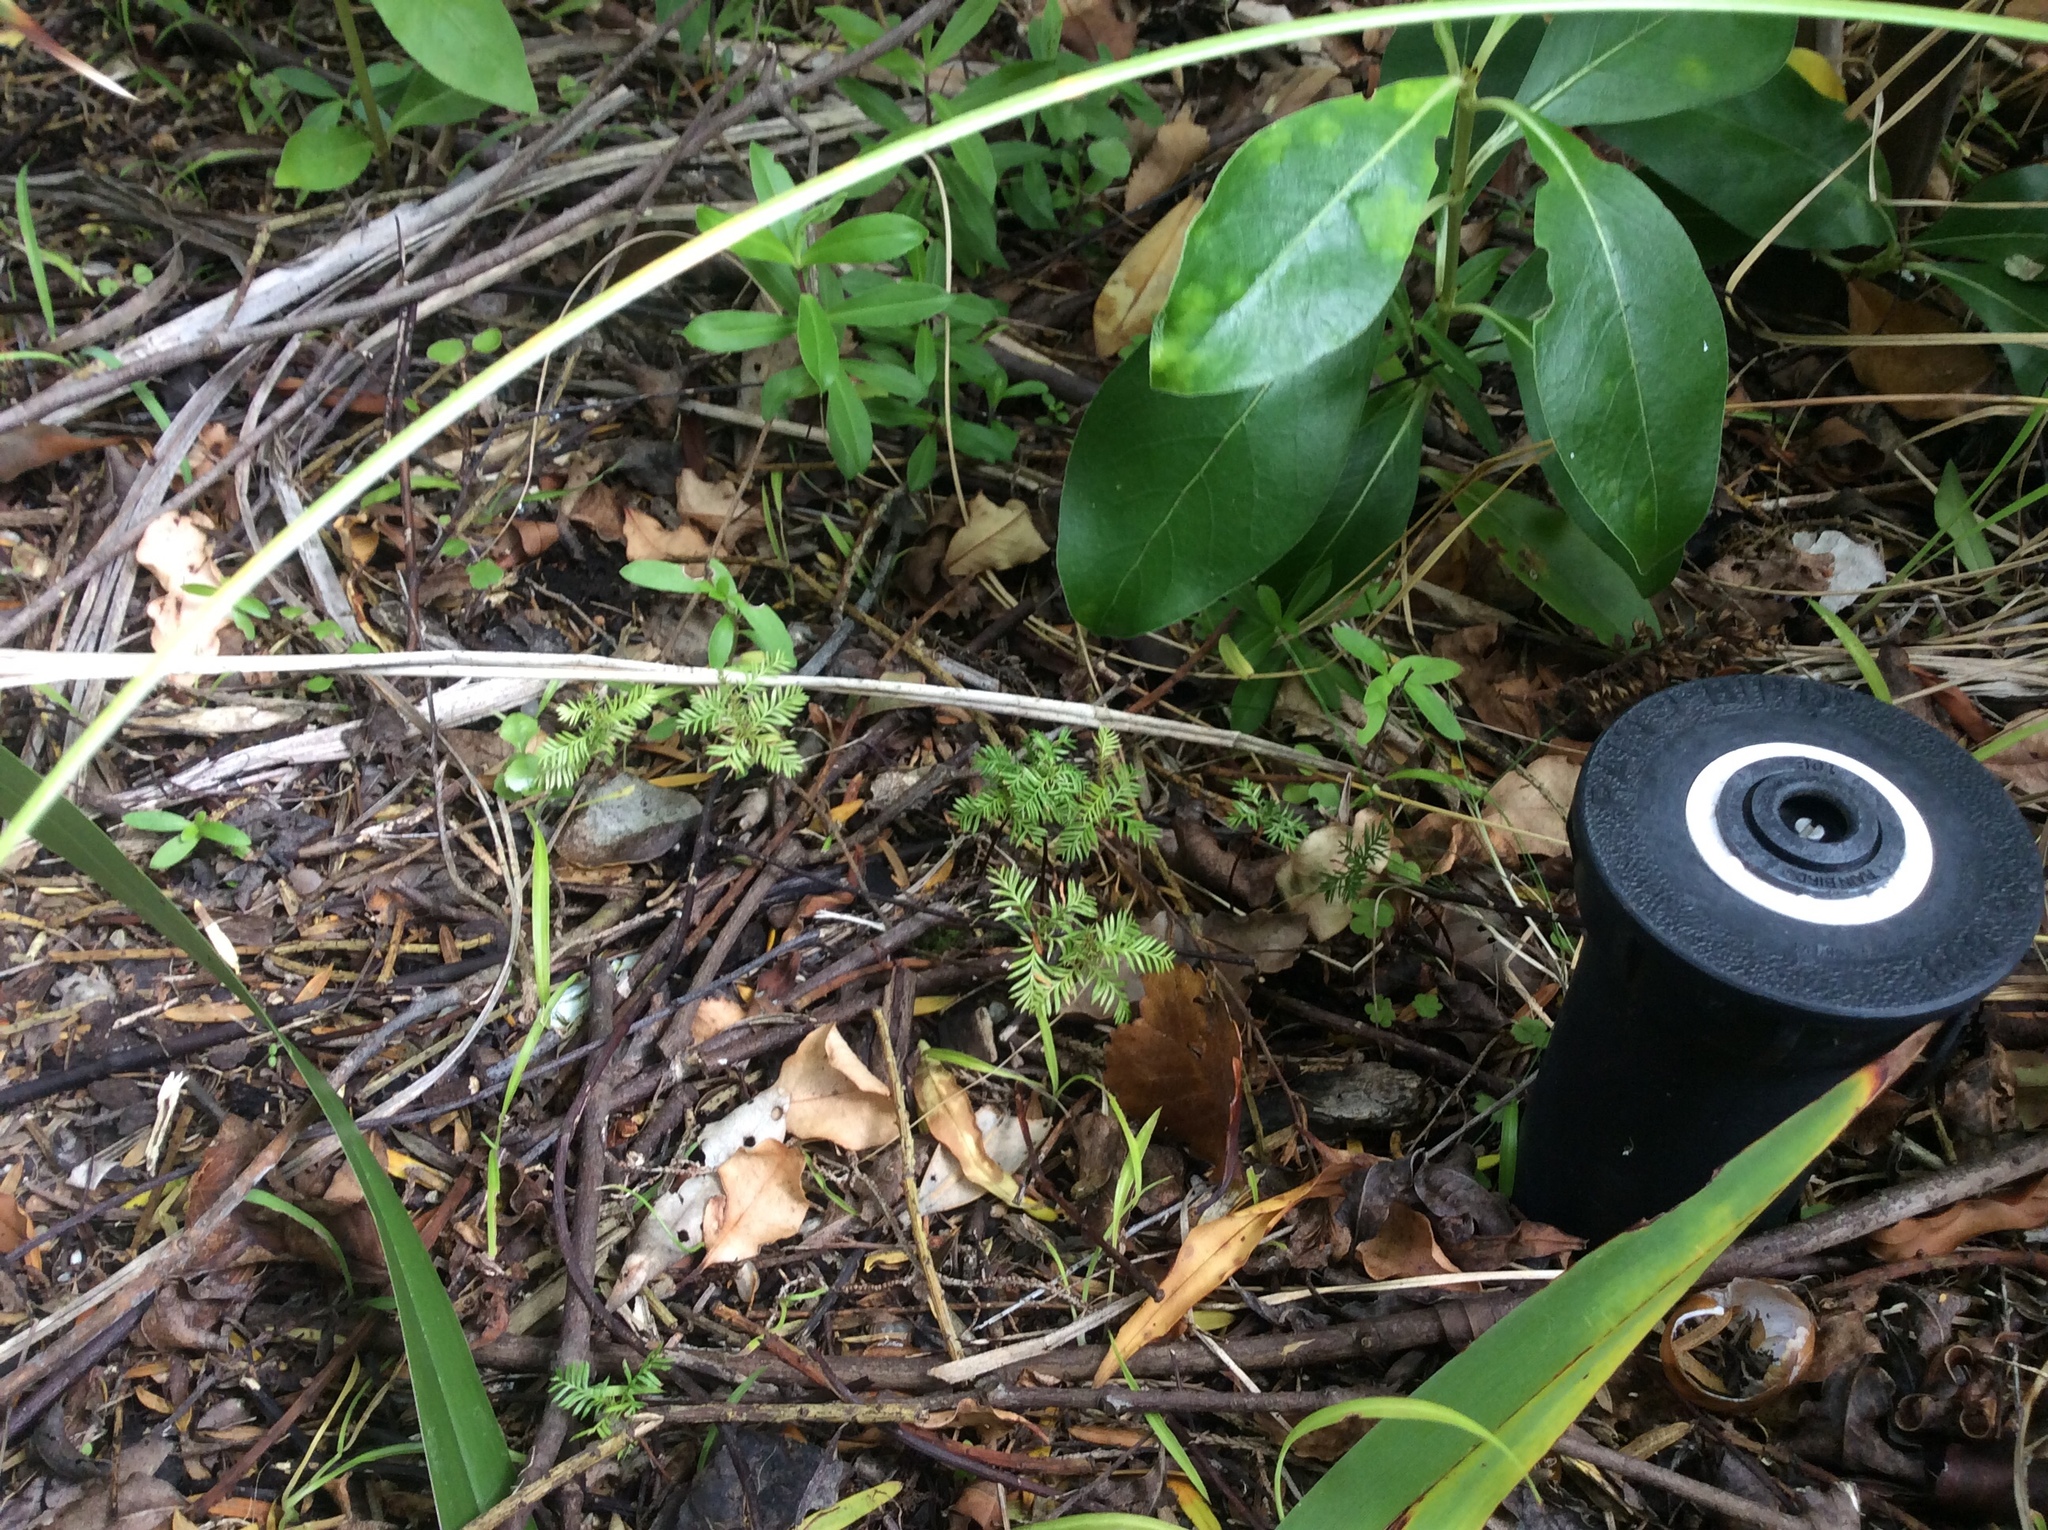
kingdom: Plantae
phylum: Tracheophyta
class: Pinopsida
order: Pinales
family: Podocarpaceae
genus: Dacrycarpus
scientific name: Dacrycarpus dacrydioides
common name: White pine
